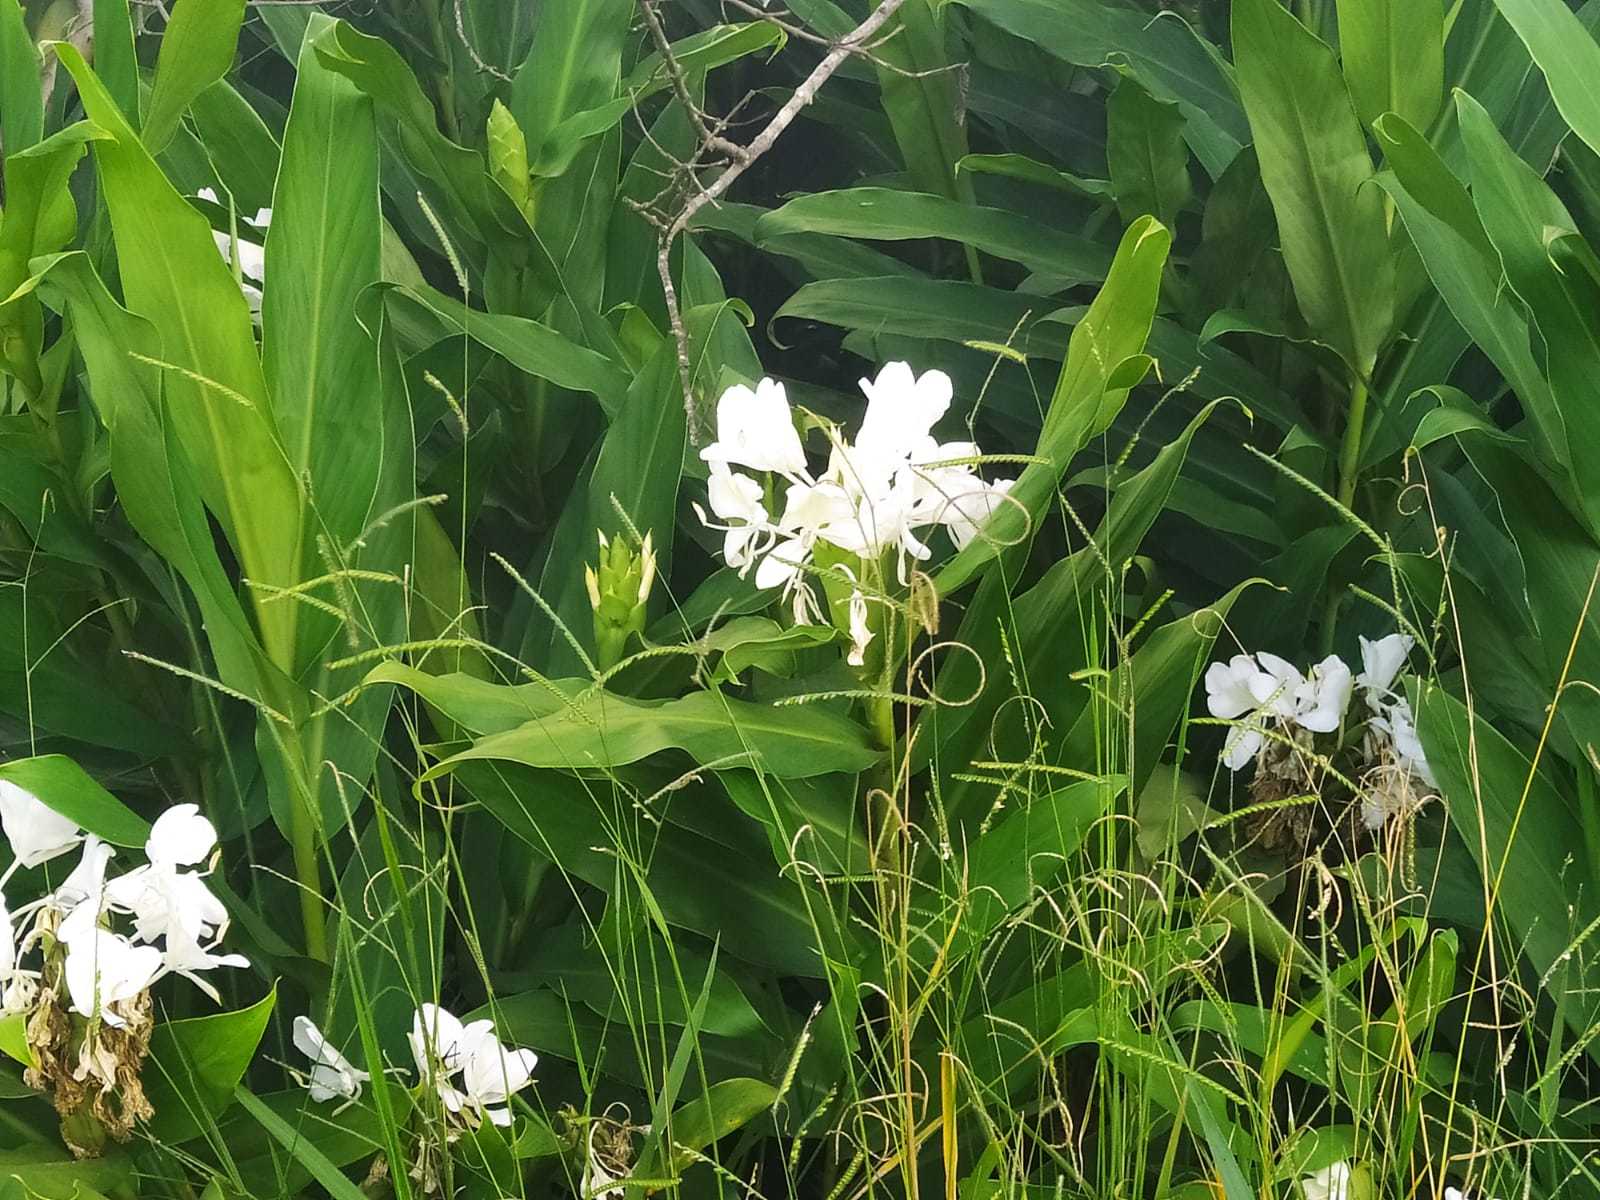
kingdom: Plantae
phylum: Tracheophyta
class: Liliopsida
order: Zingiberales
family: Zingiberaceae
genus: Hedychium
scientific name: Hedychium coronarium
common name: White garland-lily
